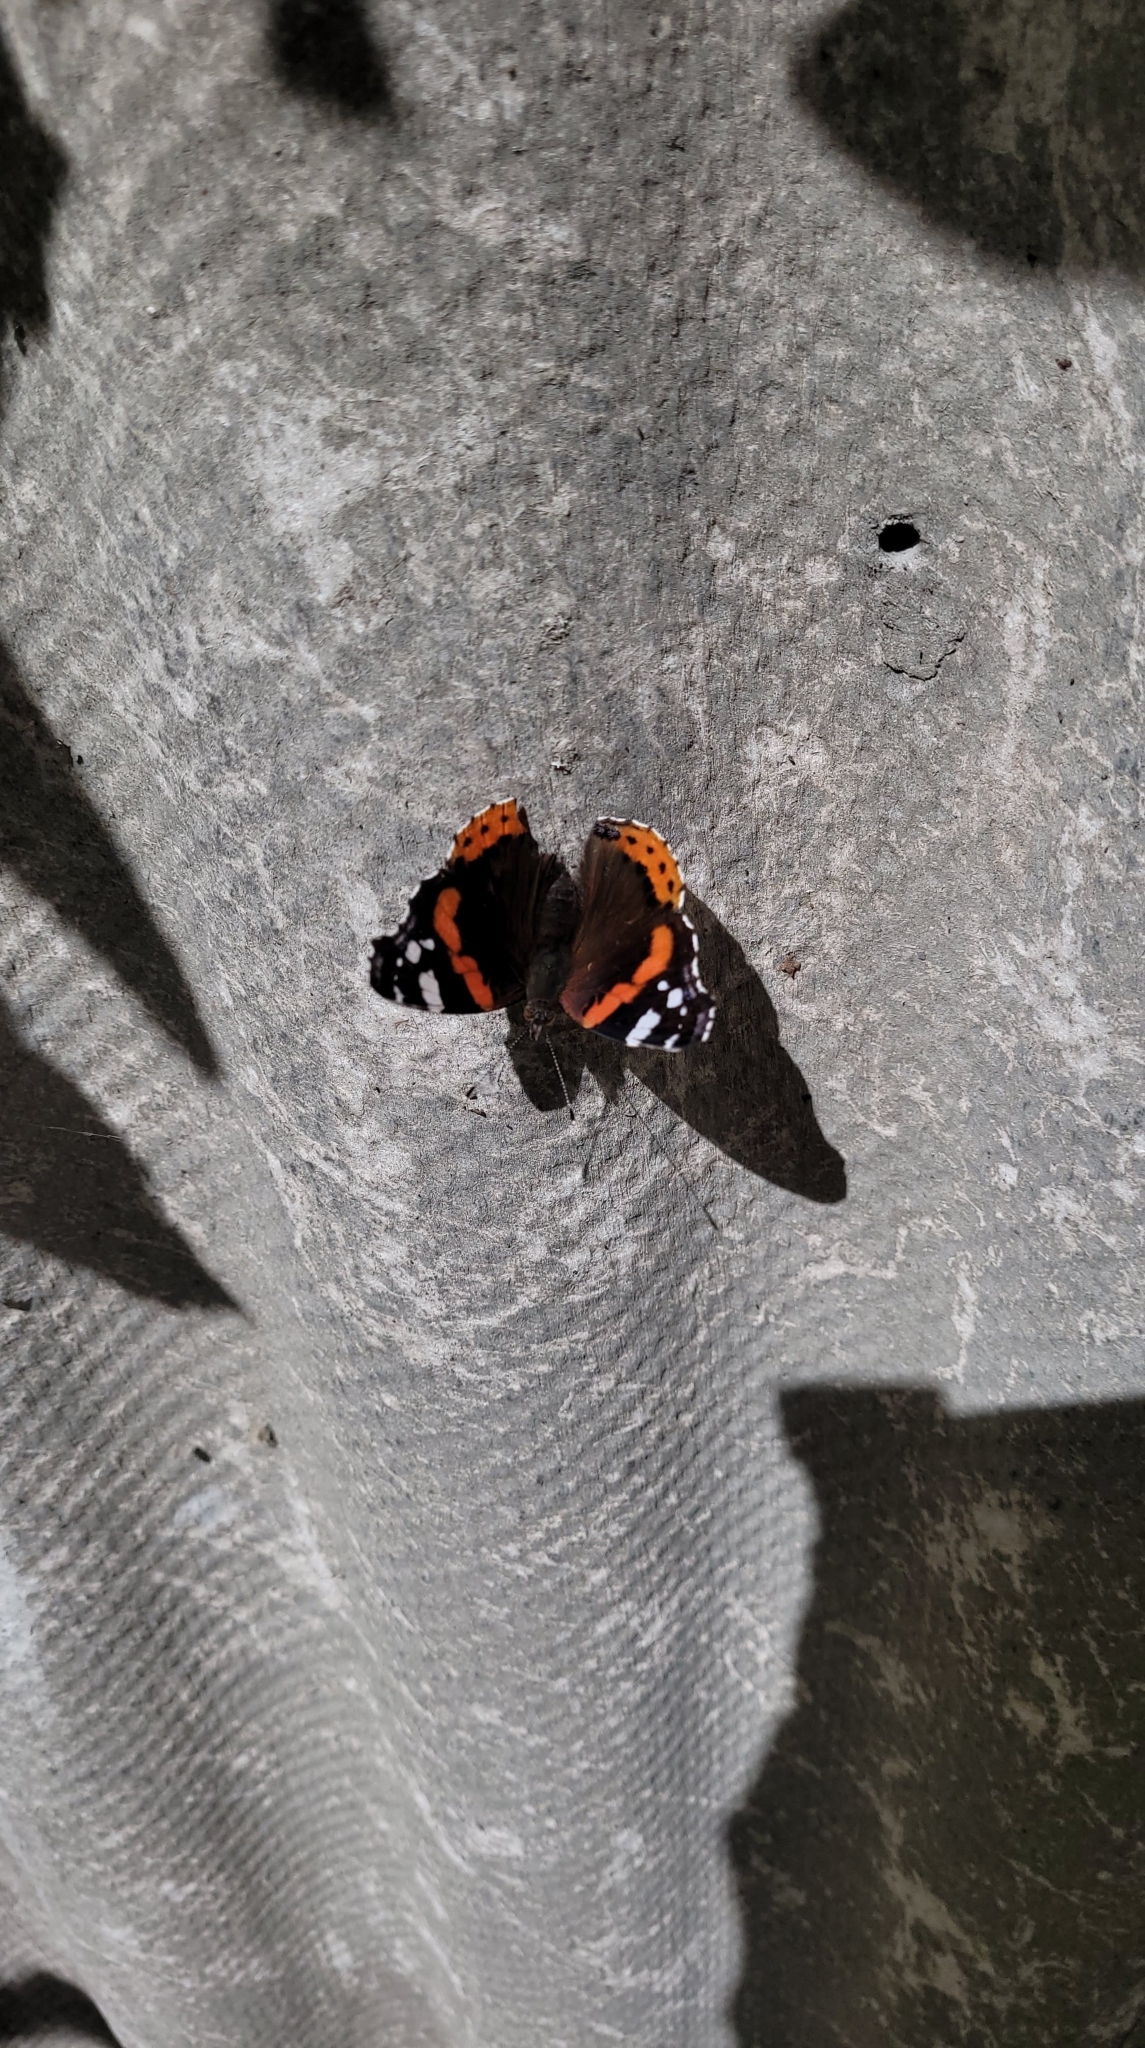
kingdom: Animalia
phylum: Arthropoda
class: Insecta
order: Lepidoptera
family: Nymphalidae
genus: Vanessa
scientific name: Vanessa atalanta
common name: Red admiral
